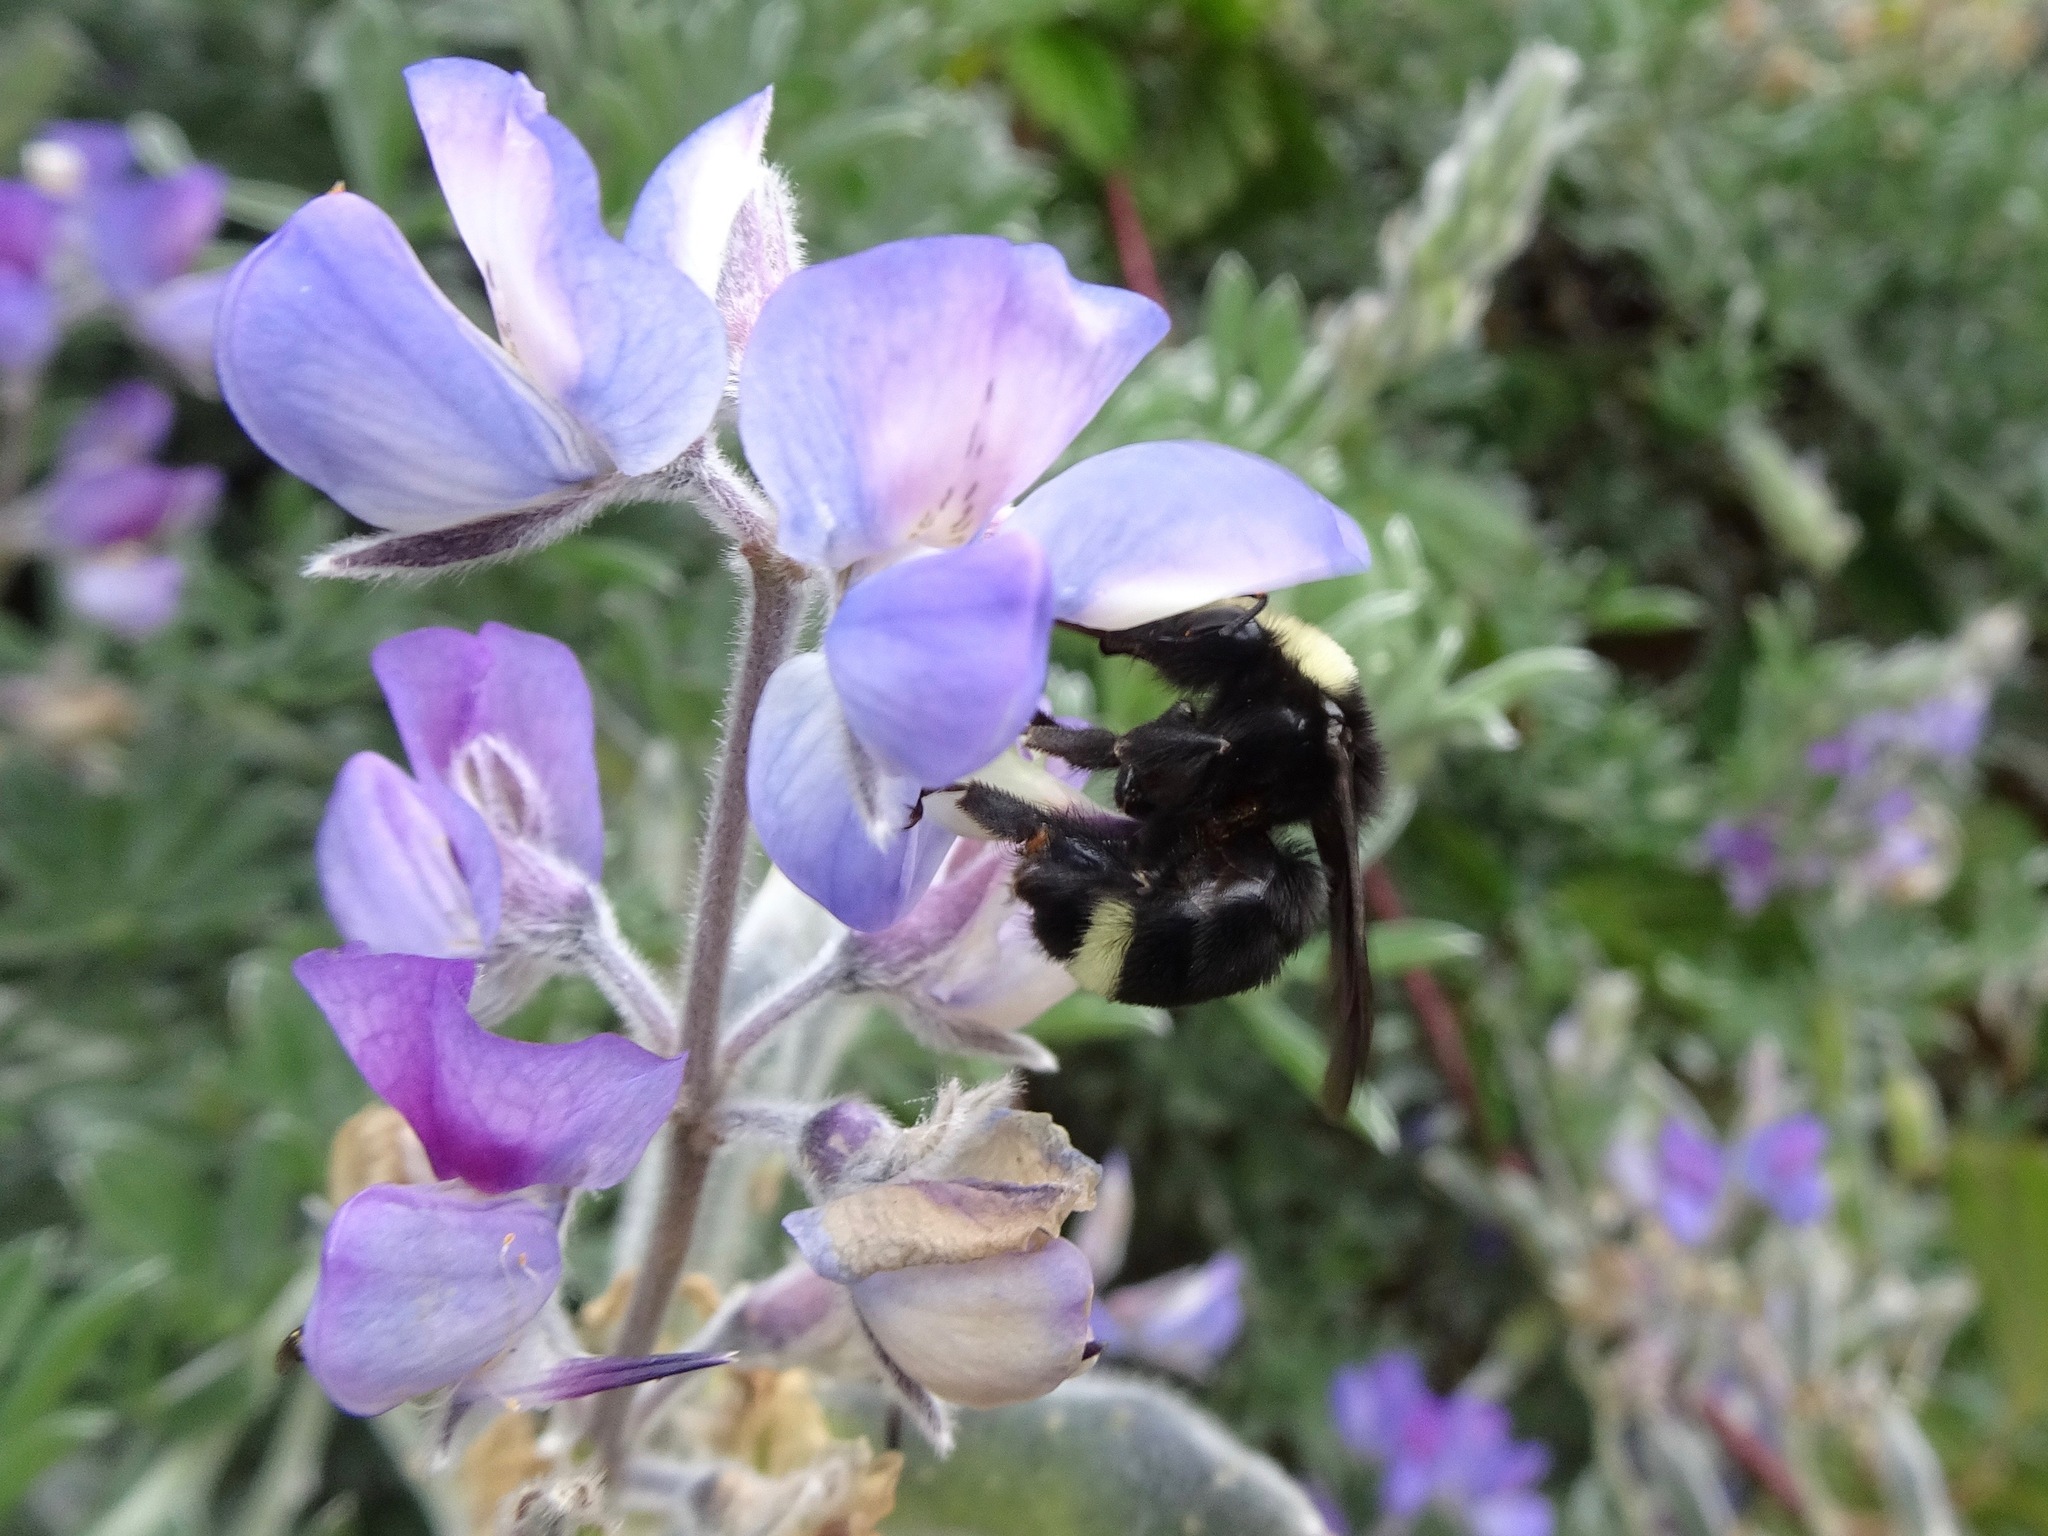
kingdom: Animalia
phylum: Arthropoda
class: Insecta
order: Hymenoptera
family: Apidae
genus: Bombus
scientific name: Bombus vosnesenskii
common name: Vosnesensky bumble bee
